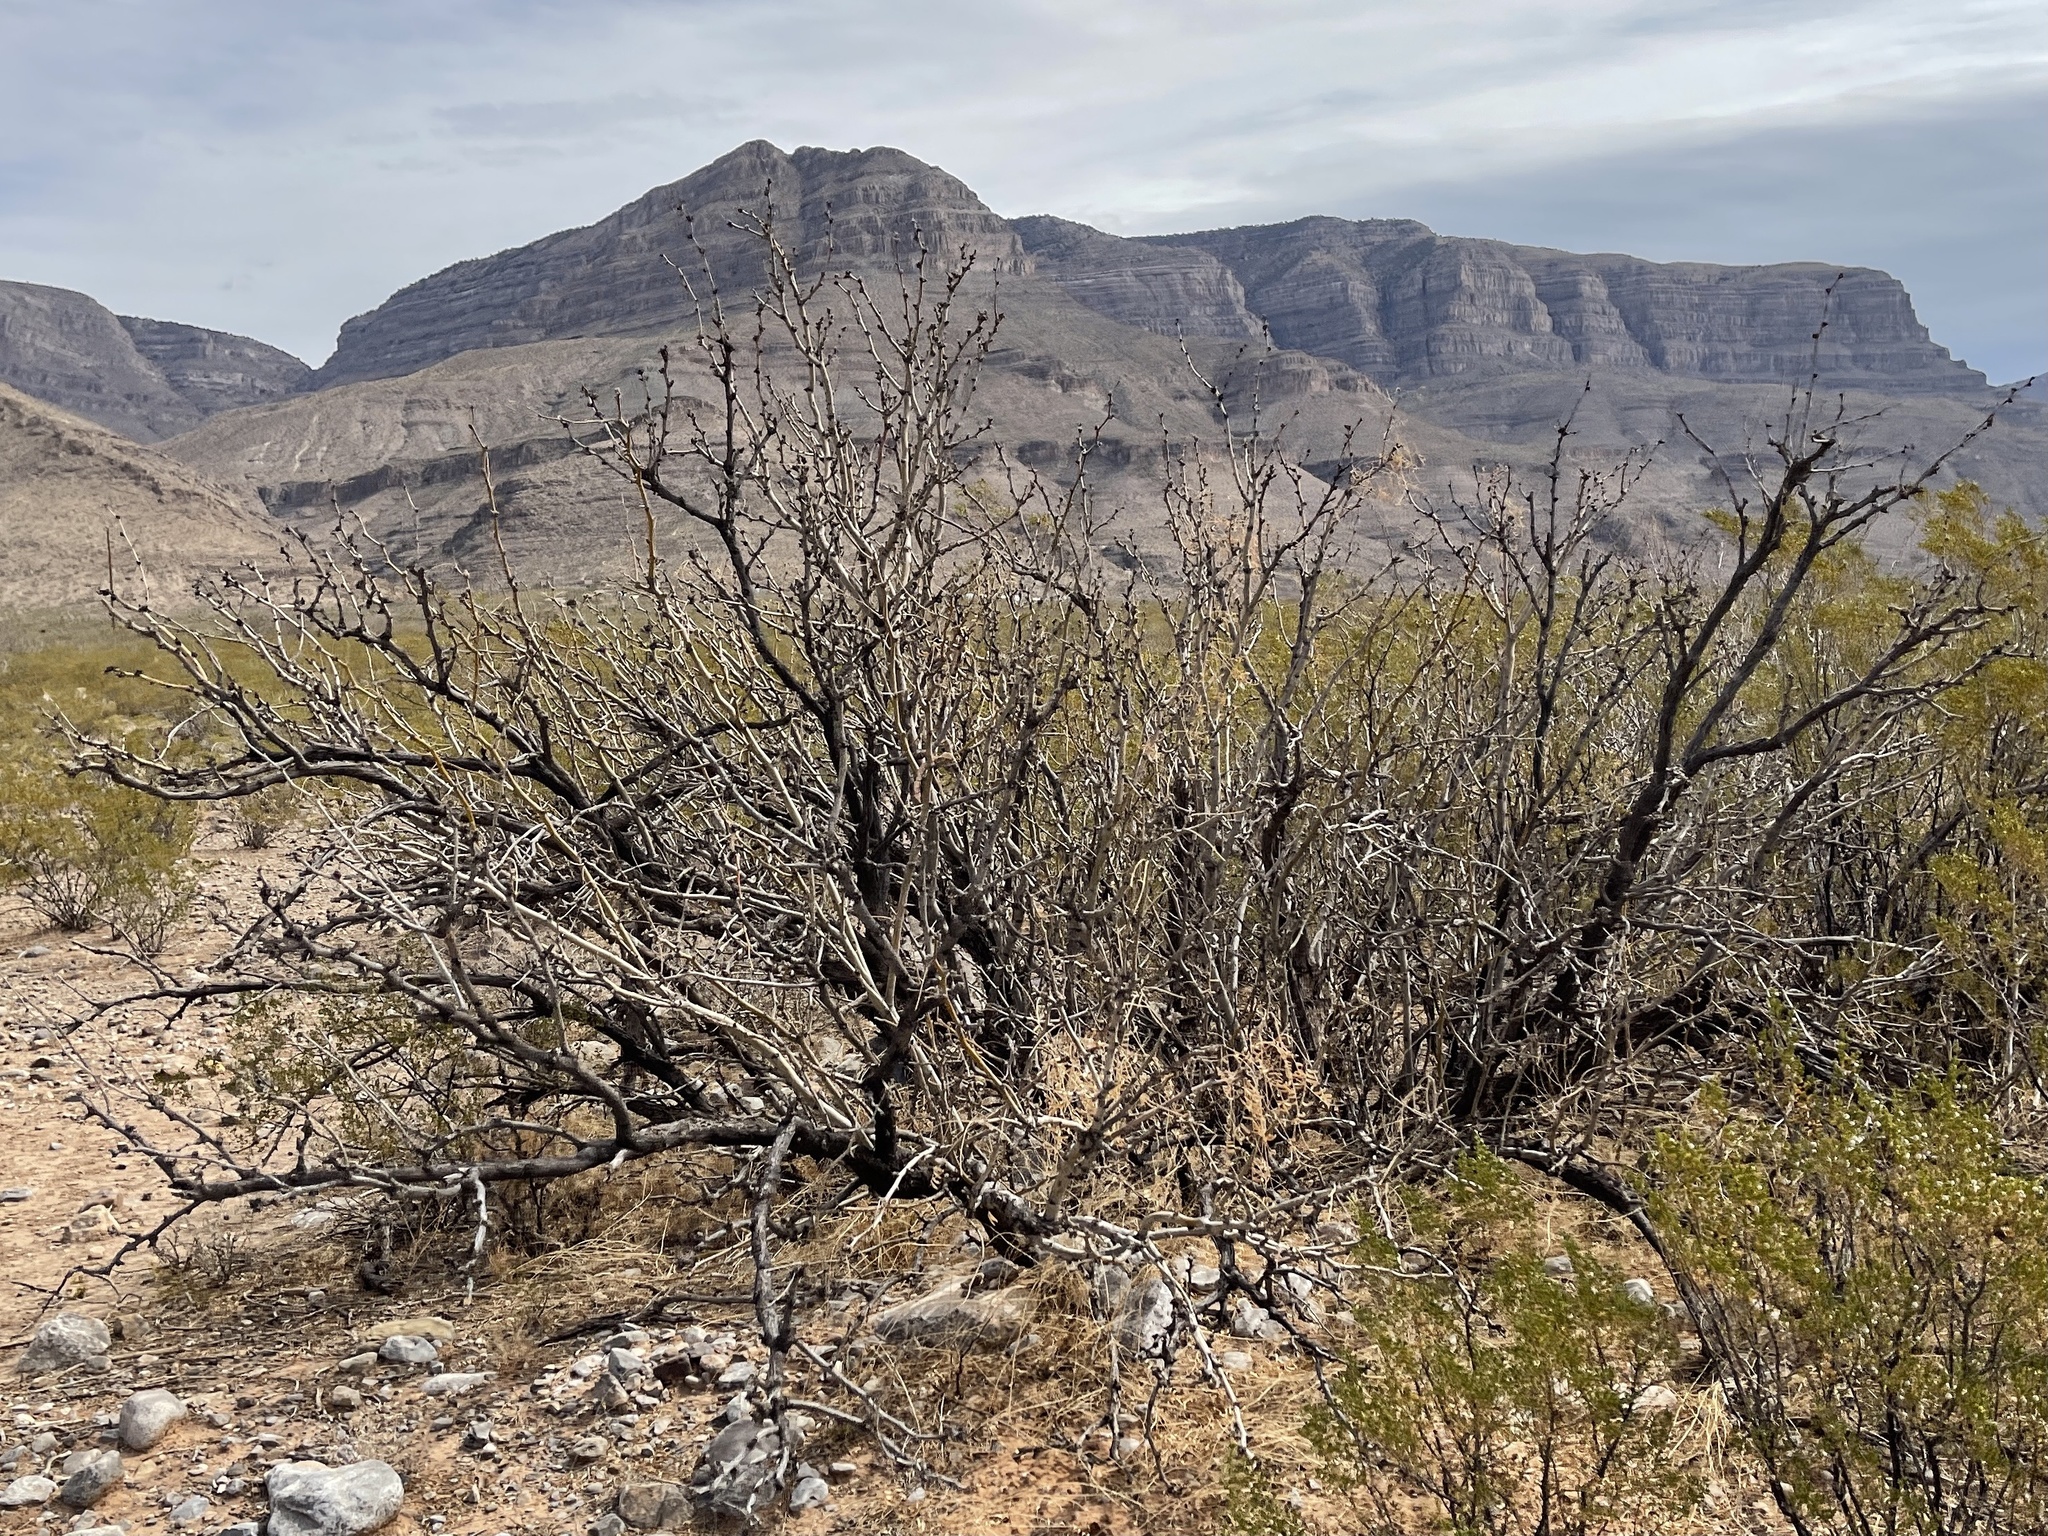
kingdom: Plantae
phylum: Tracheophyta
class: Magnoliopsida
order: Fabales
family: Fabaceae
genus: Prosopis
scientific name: Prosopis glandulosa
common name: Honey mesquite
